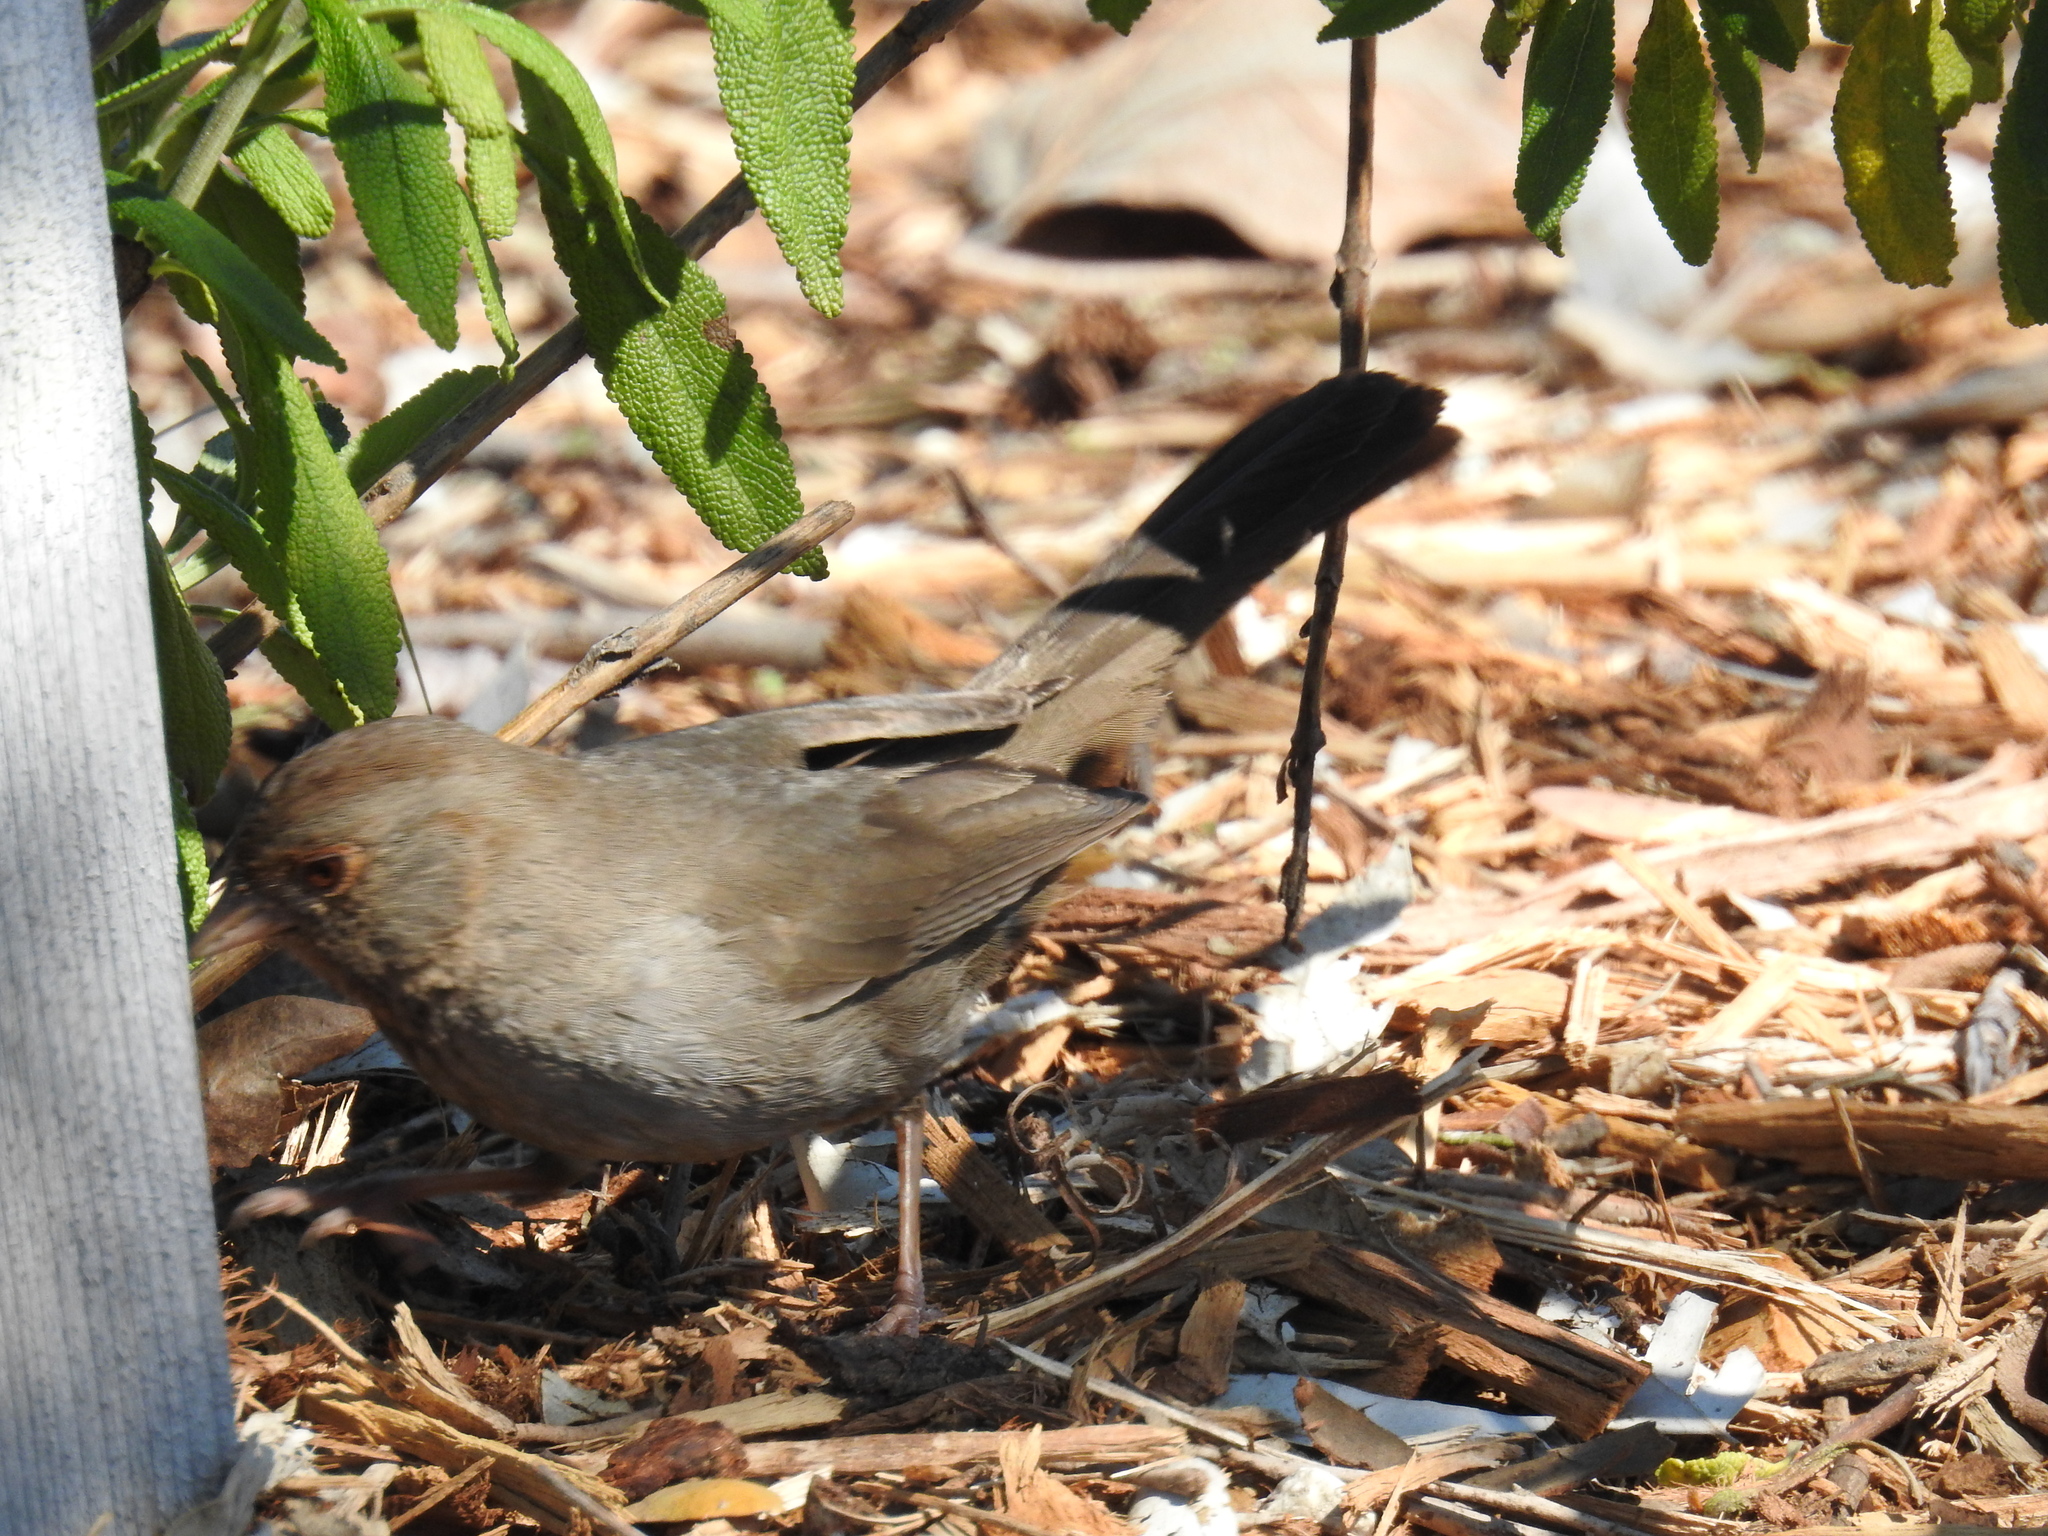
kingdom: Animalia
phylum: Chordata
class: Aves
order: Passeriformes
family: Passerellidae
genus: Melozone
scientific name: Melozone crissalis
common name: California towhee
